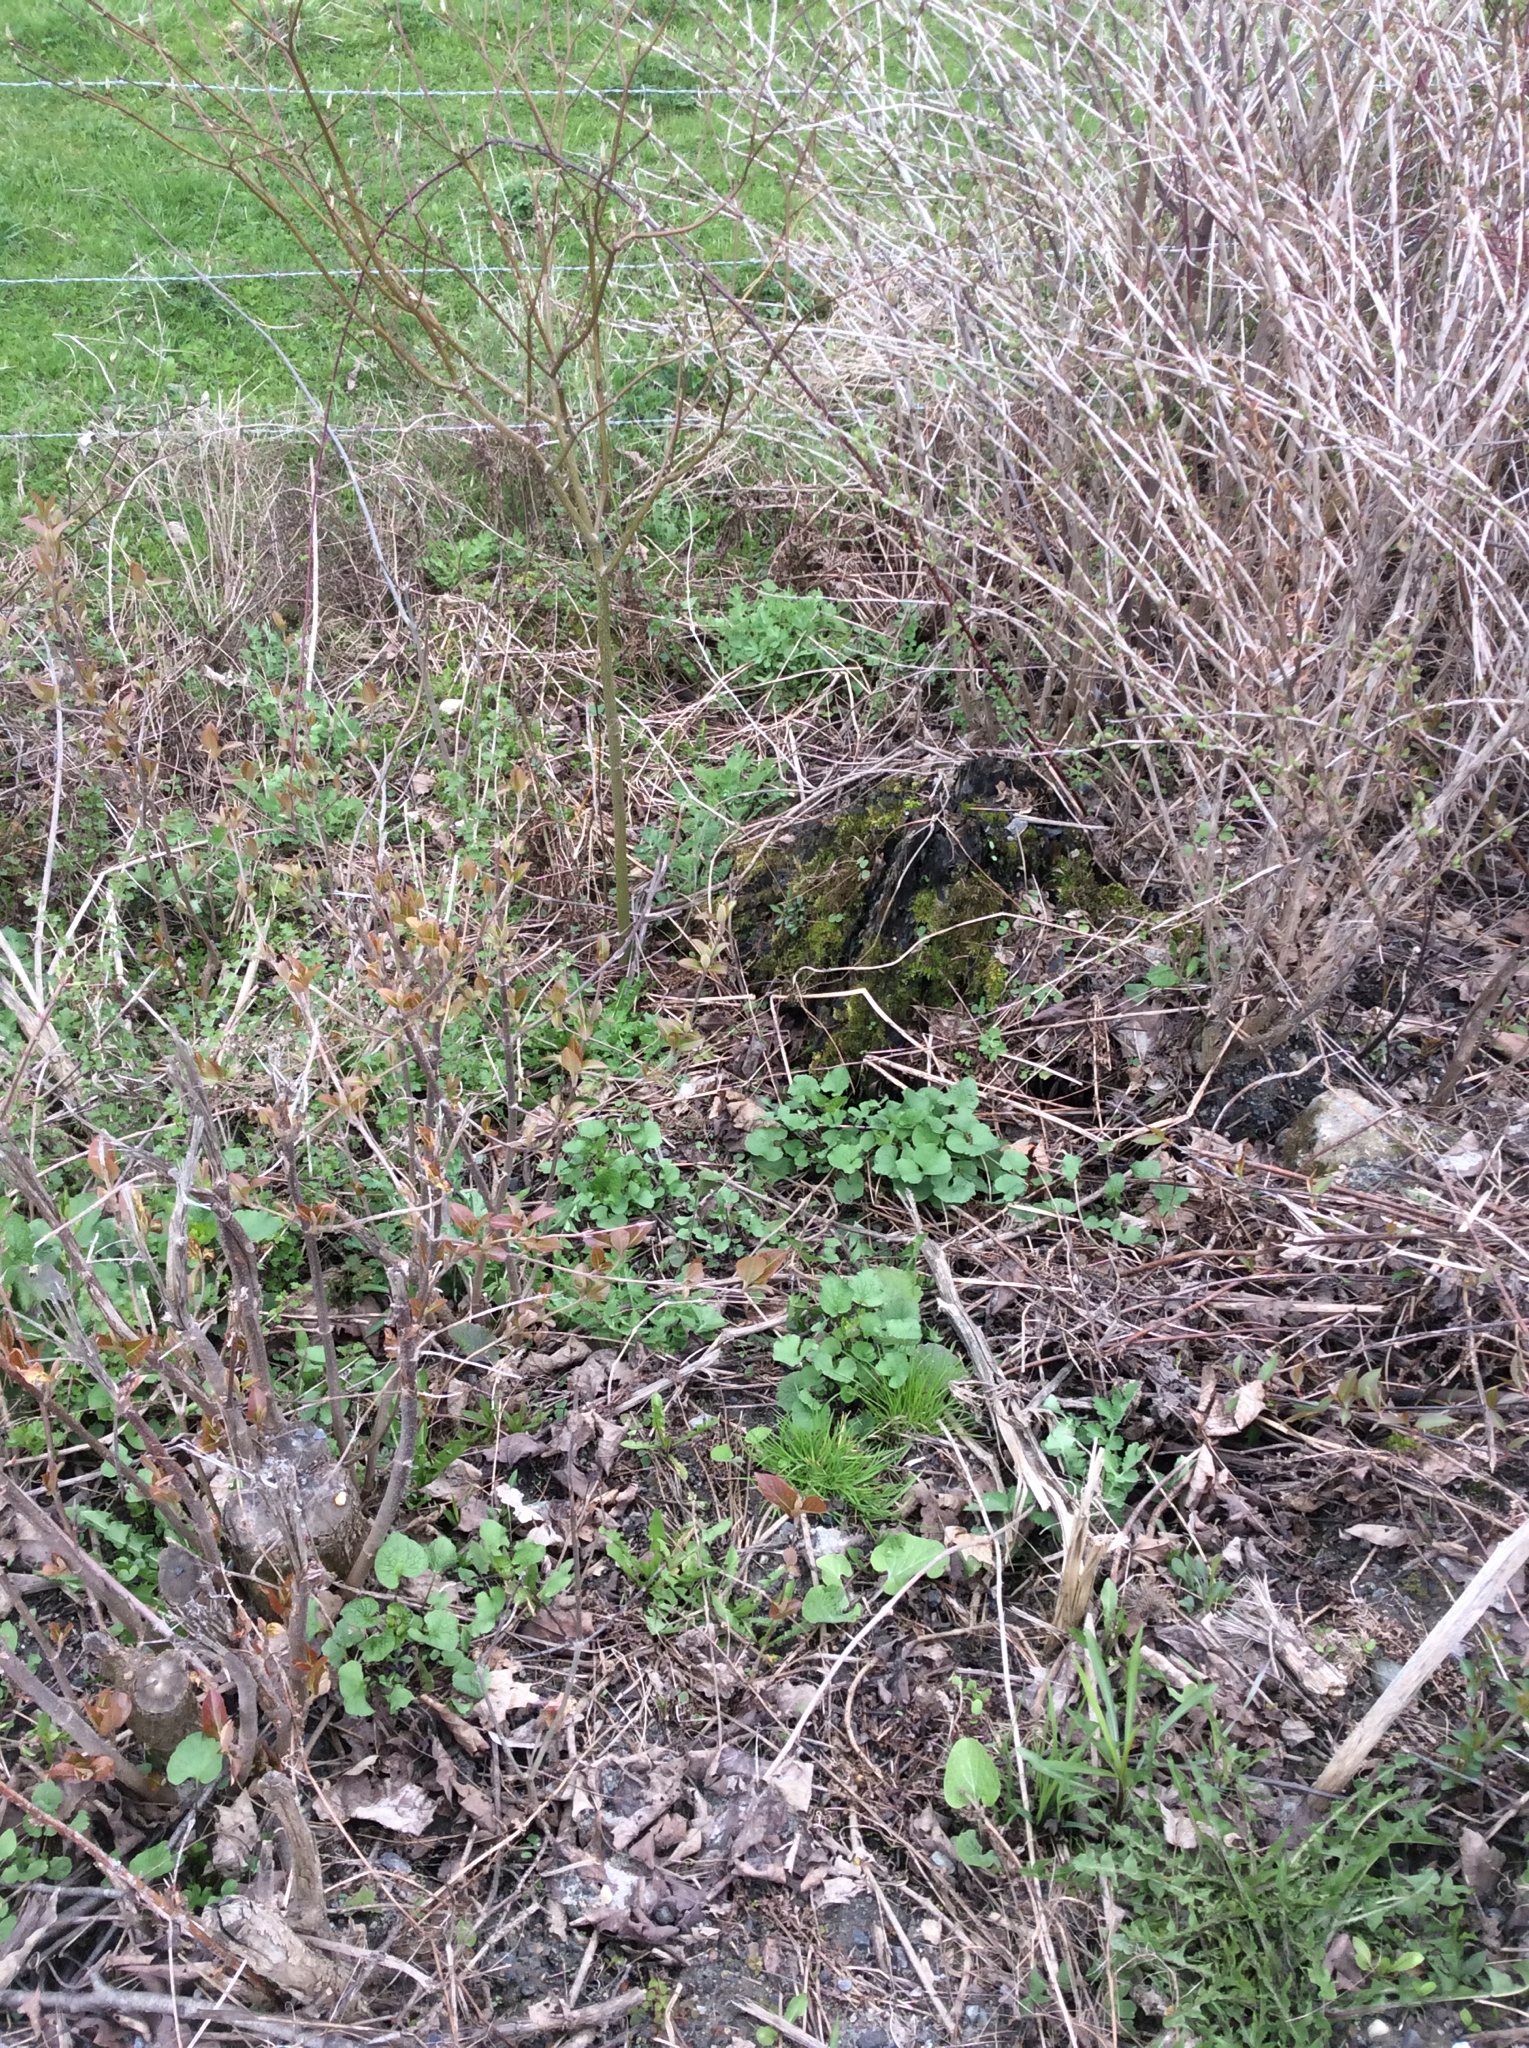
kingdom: Plantae
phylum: Tracheophyta
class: Magnoliopsida
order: Brassicales
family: Brassicaceae
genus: Alliaria
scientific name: Alliaria petiolata
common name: Garlic mustard
